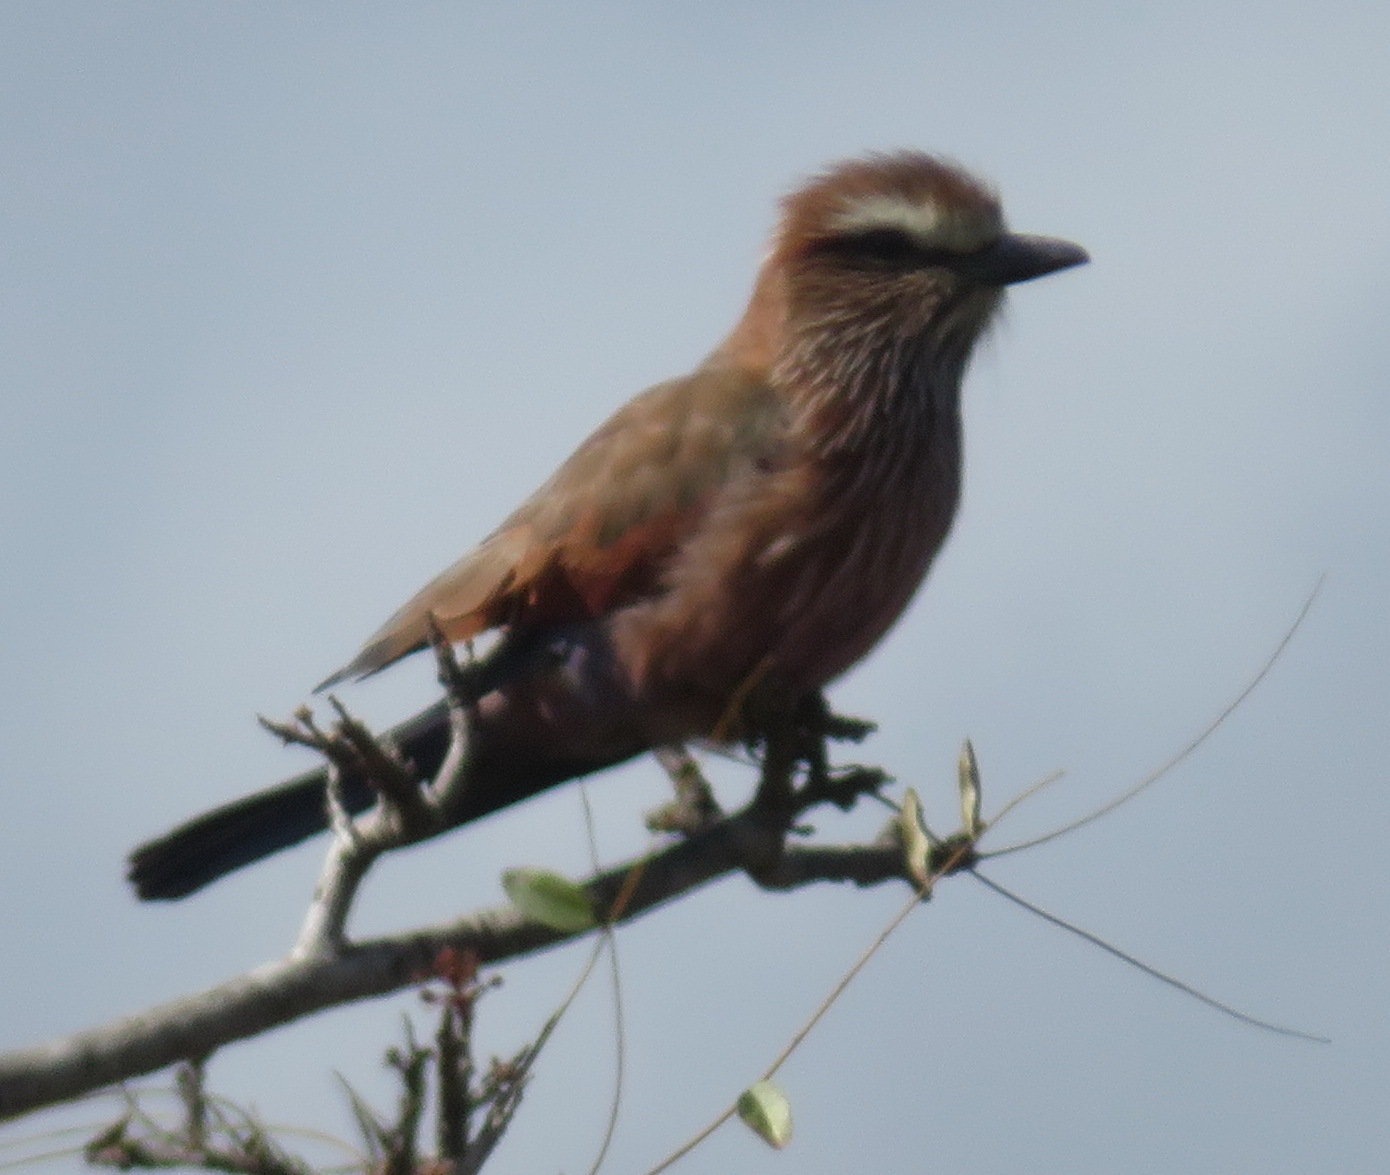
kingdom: Animalia
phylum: Chordata
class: Aves
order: Coraciiformes
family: Coraciidae
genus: Coracias
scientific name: Coracias naevius
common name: Purple roller
